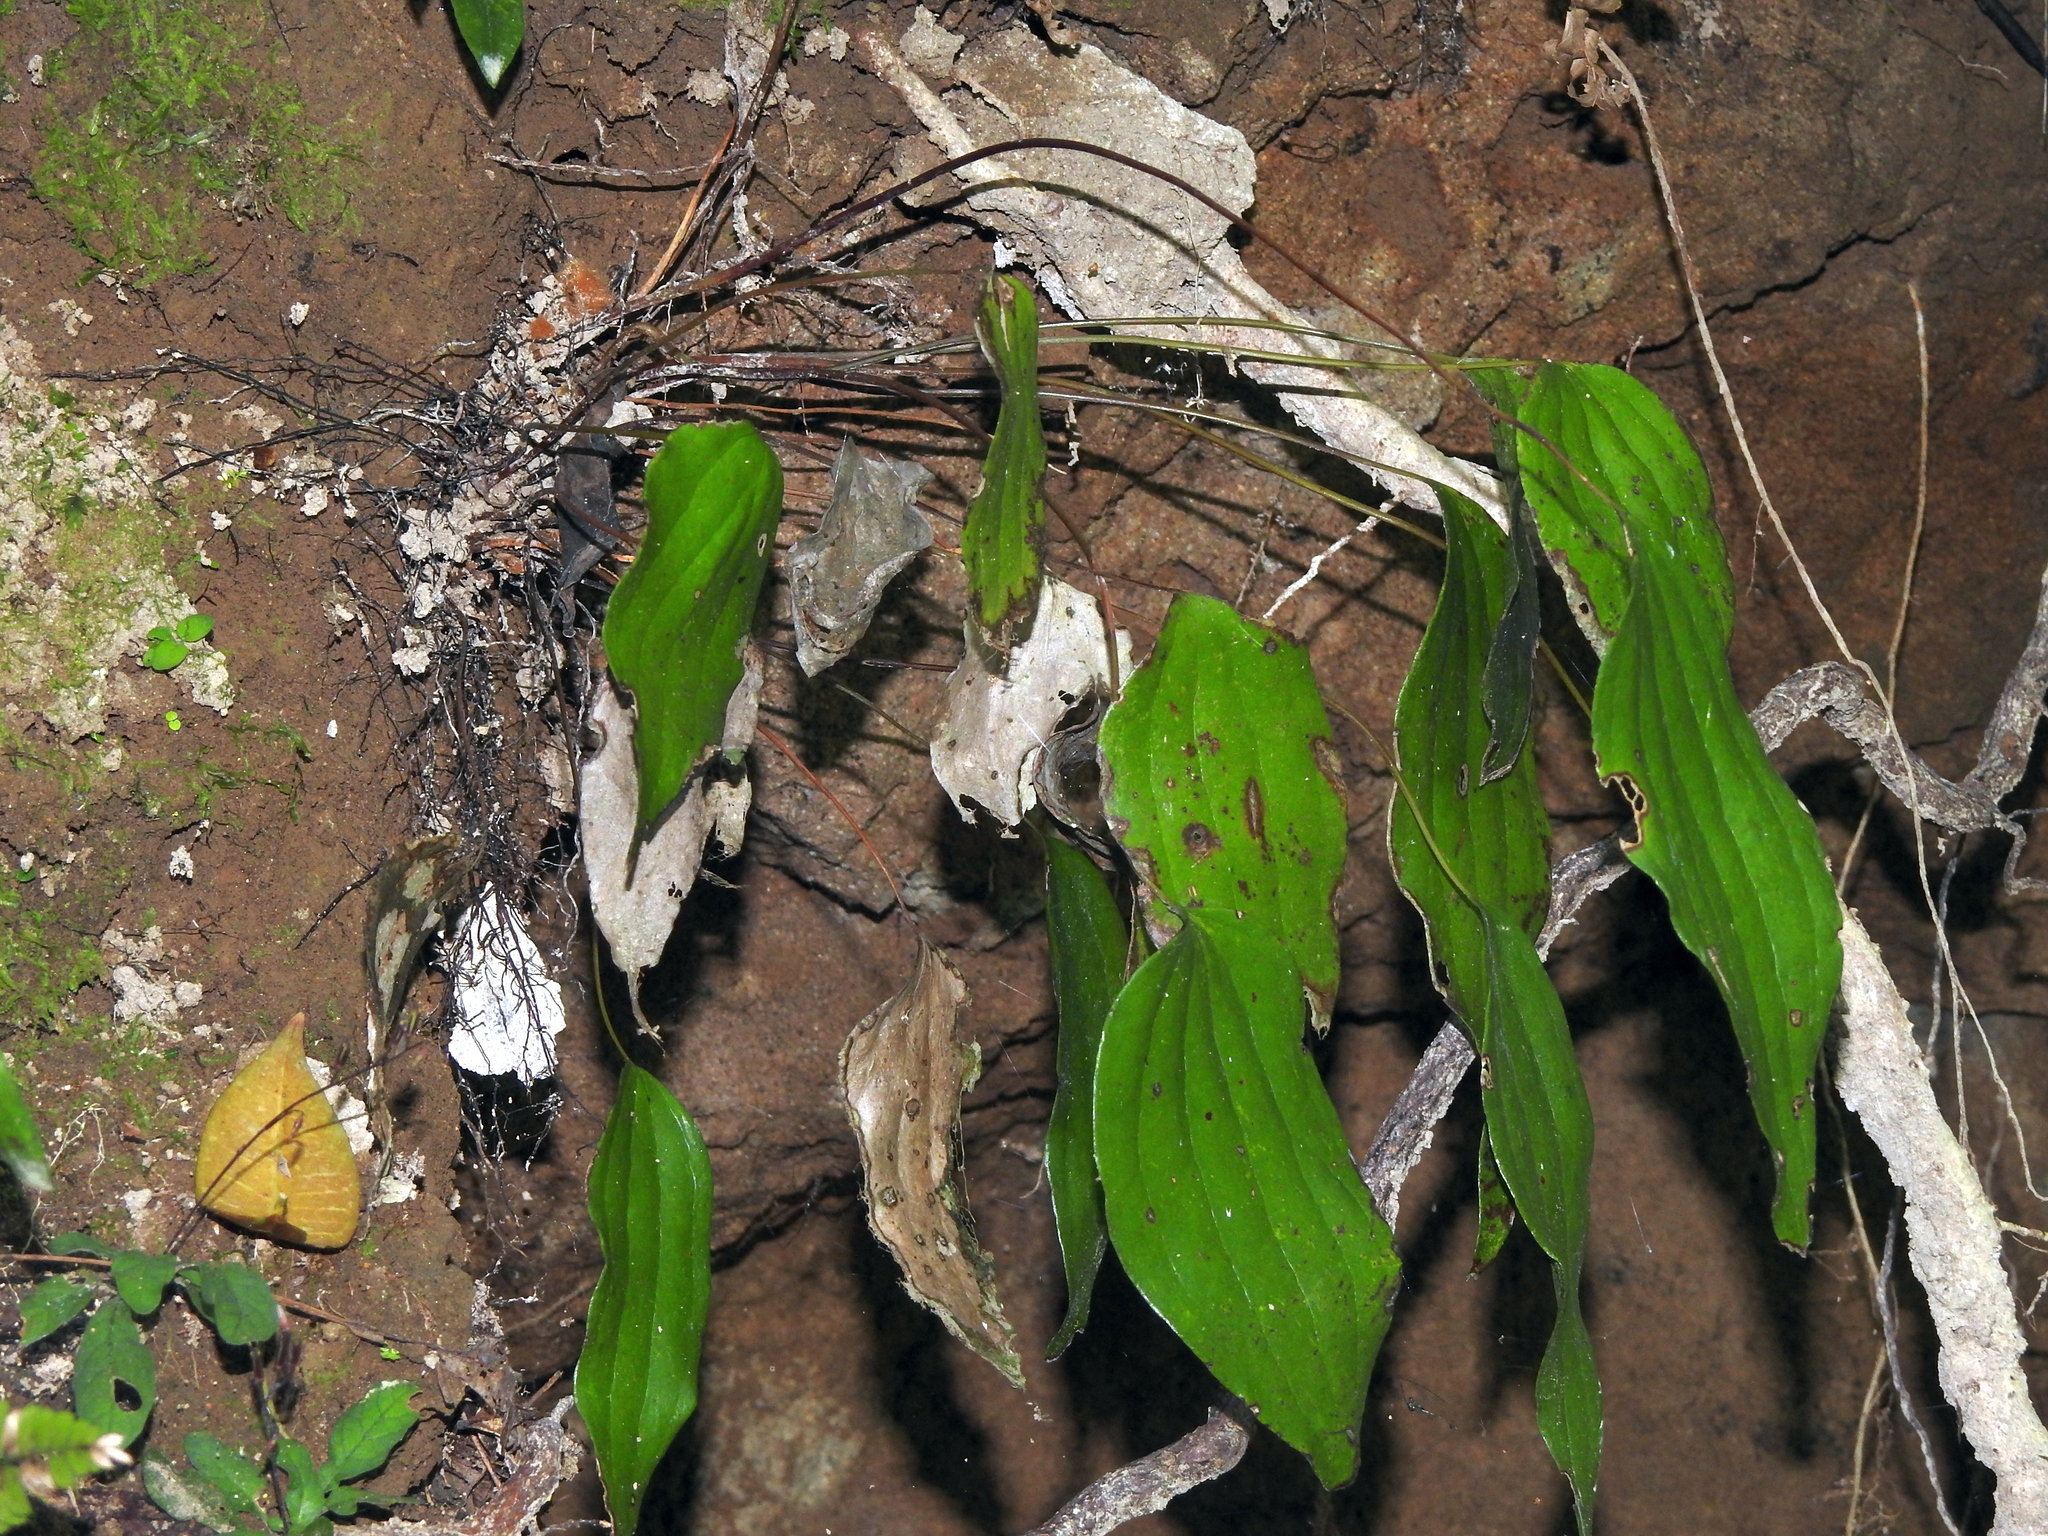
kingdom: Plantae
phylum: Tracheophyta
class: Polypodiopsida
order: Gleicheniales
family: Dipteridaceae
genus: Cheiropleuria
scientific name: Cheiropleuria integrifolia
